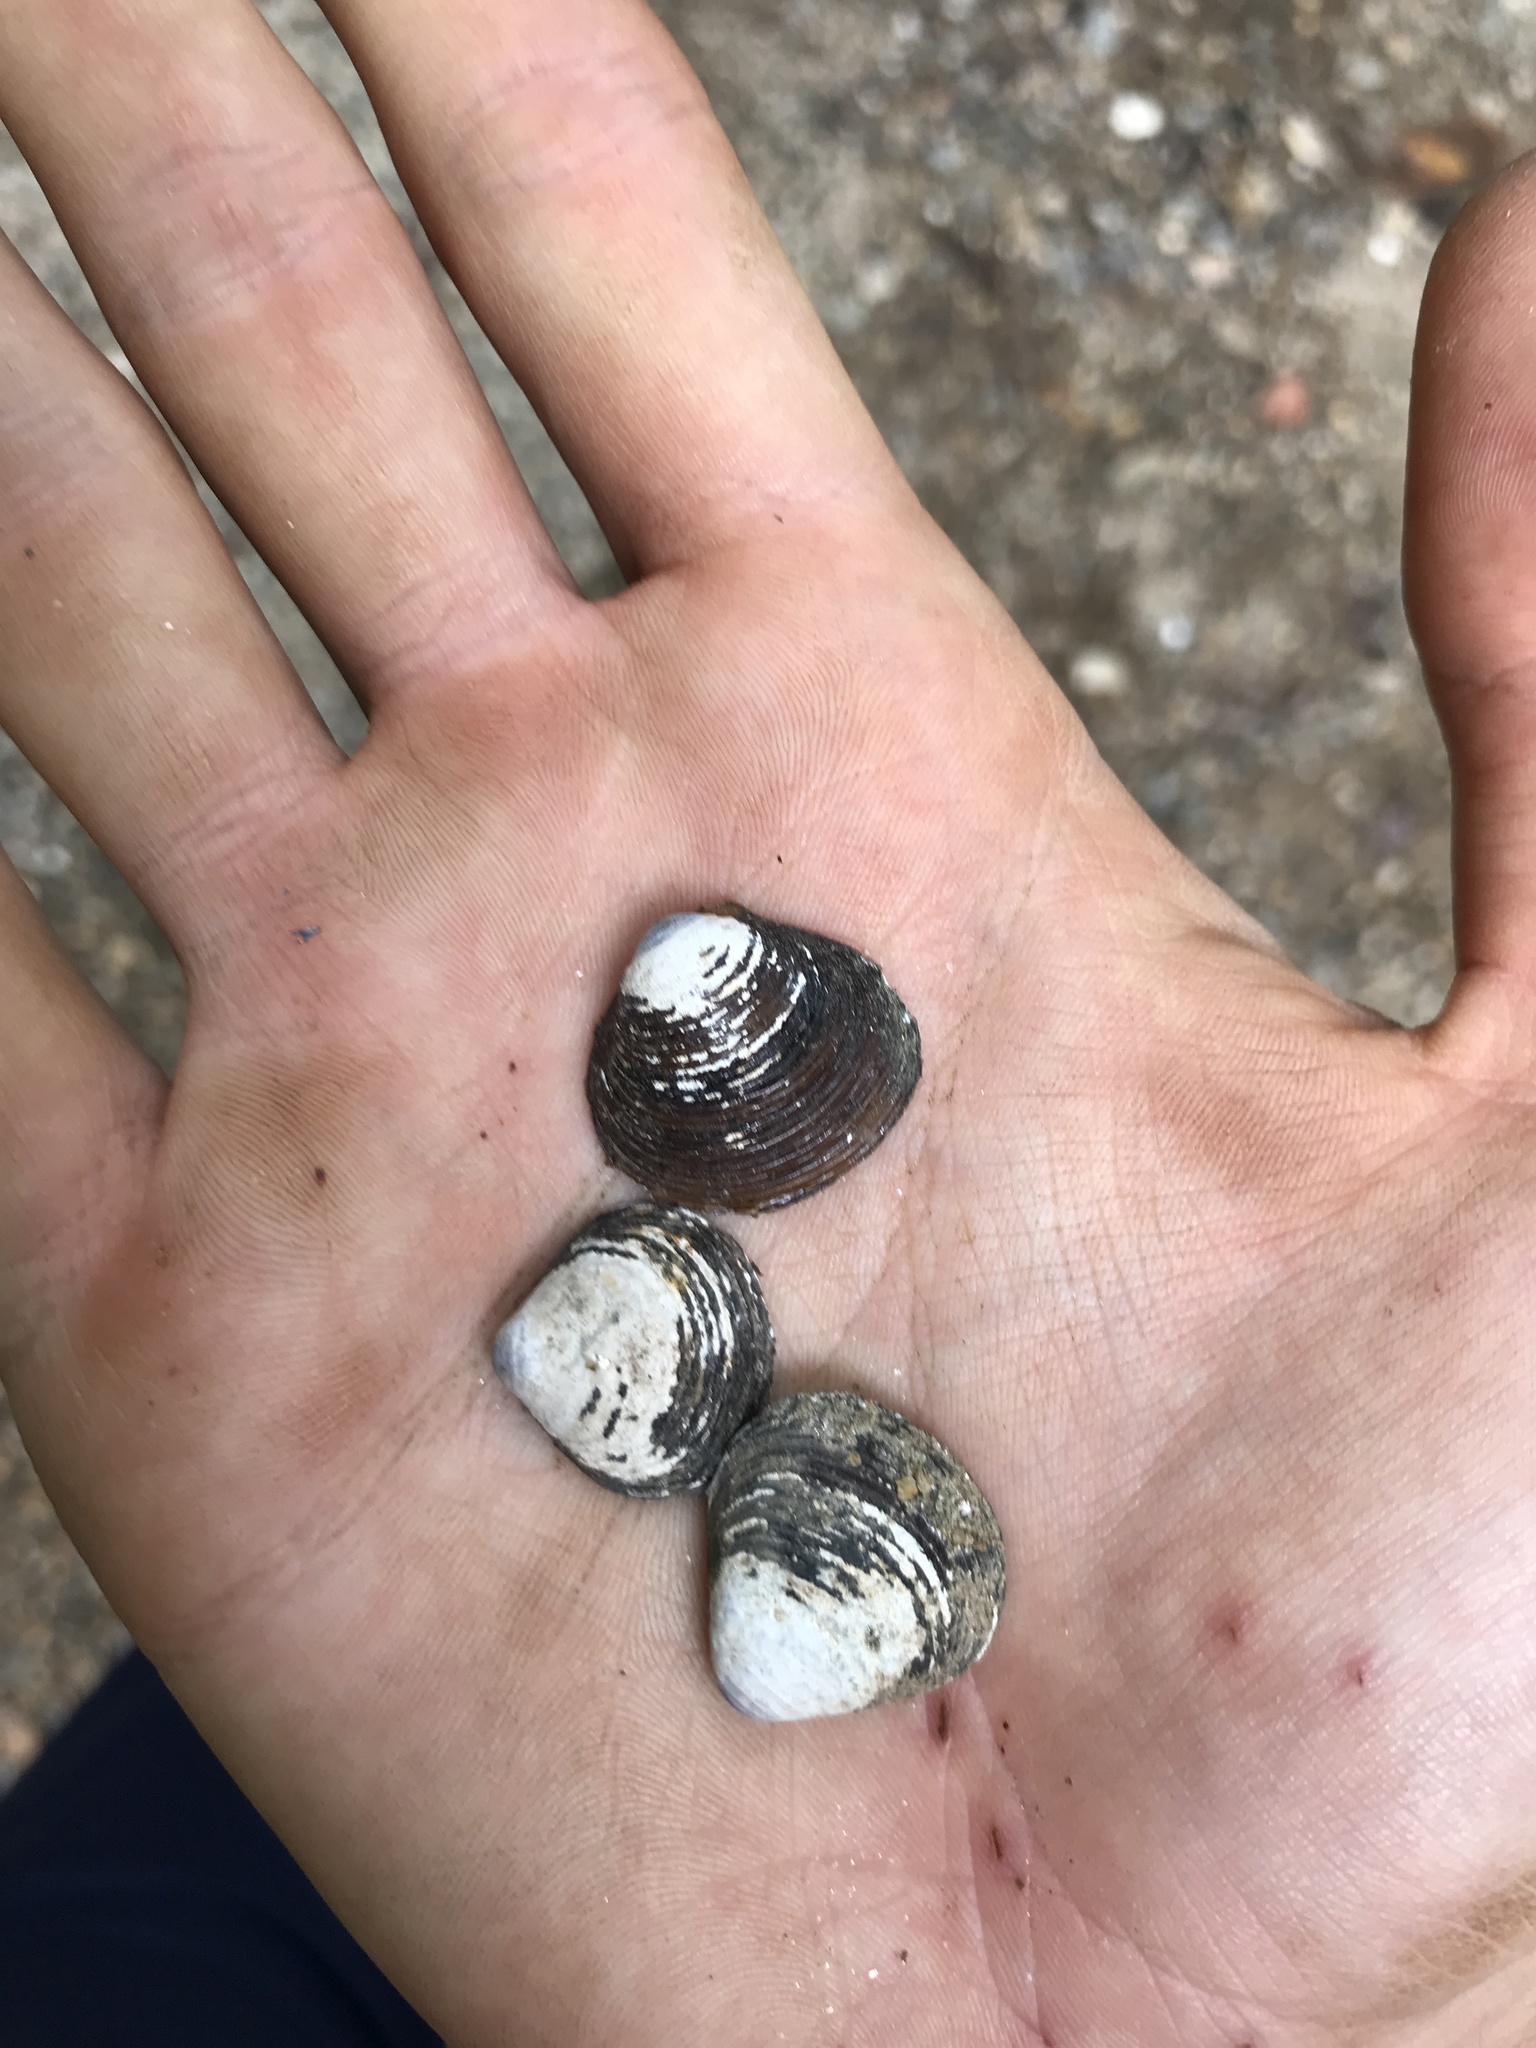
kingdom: Animalia
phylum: Mollusca
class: Bivalvia
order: Venerida
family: Cyrenidae
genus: Corbicula
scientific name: Corbicula fluminea
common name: Asian clam
